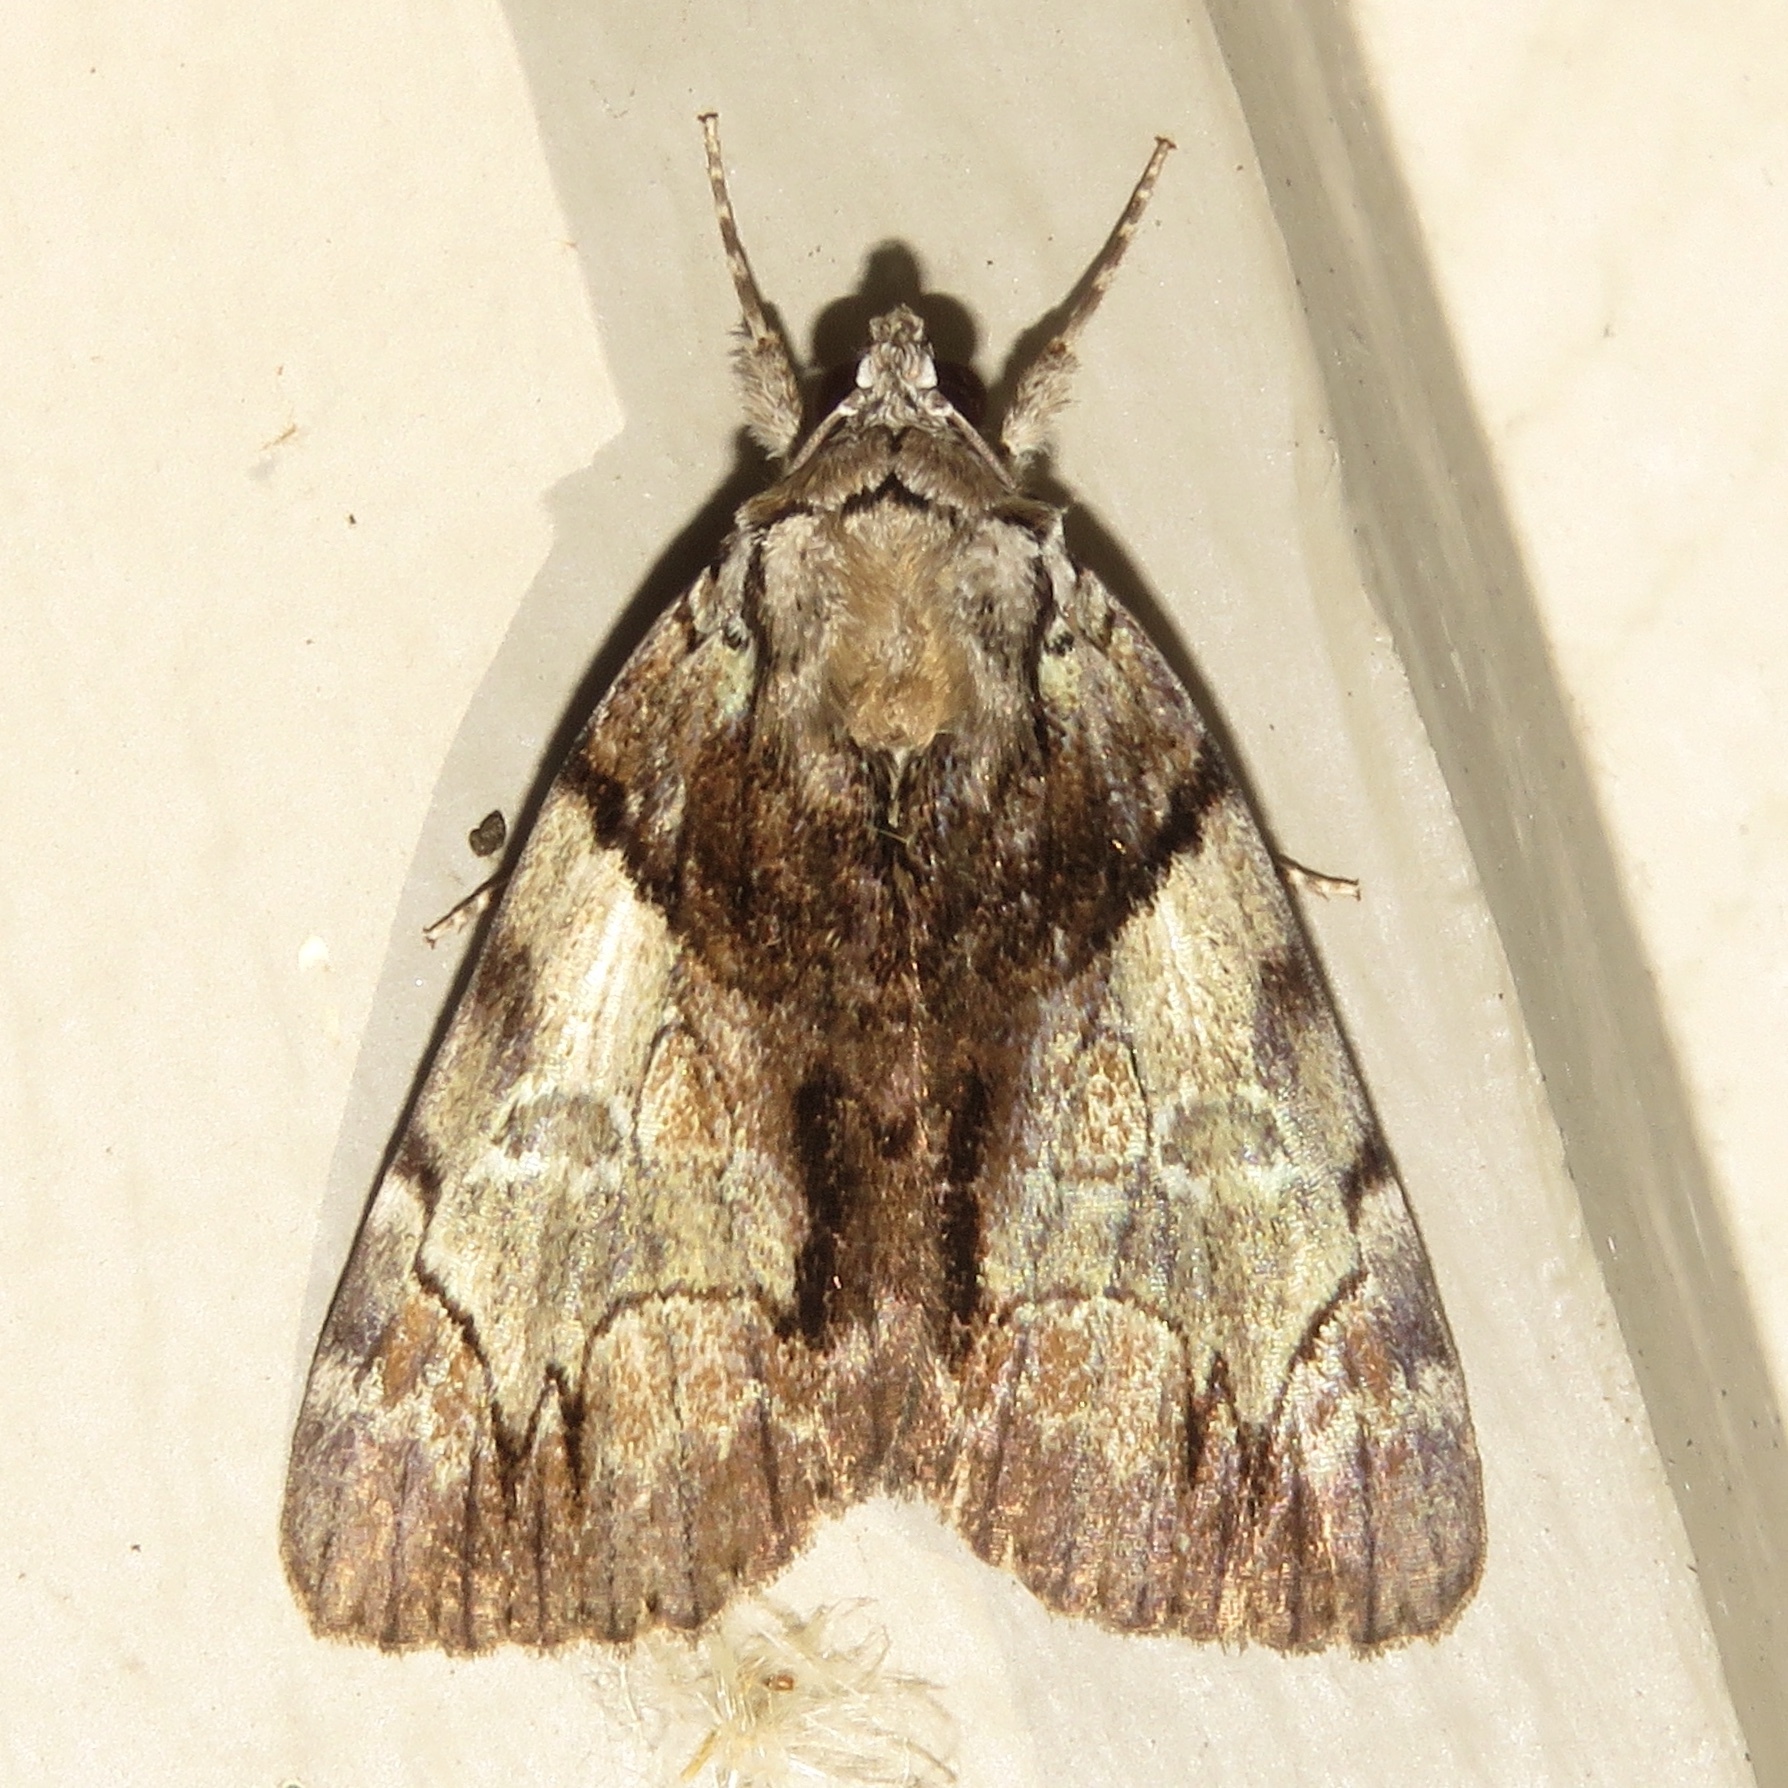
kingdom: Animalia
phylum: Arthropoda
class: Insecta
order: Lepidoptera
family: Erebidae
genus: Catocala
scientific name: Catocala crataegi
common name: Hawthorn underwing moth
